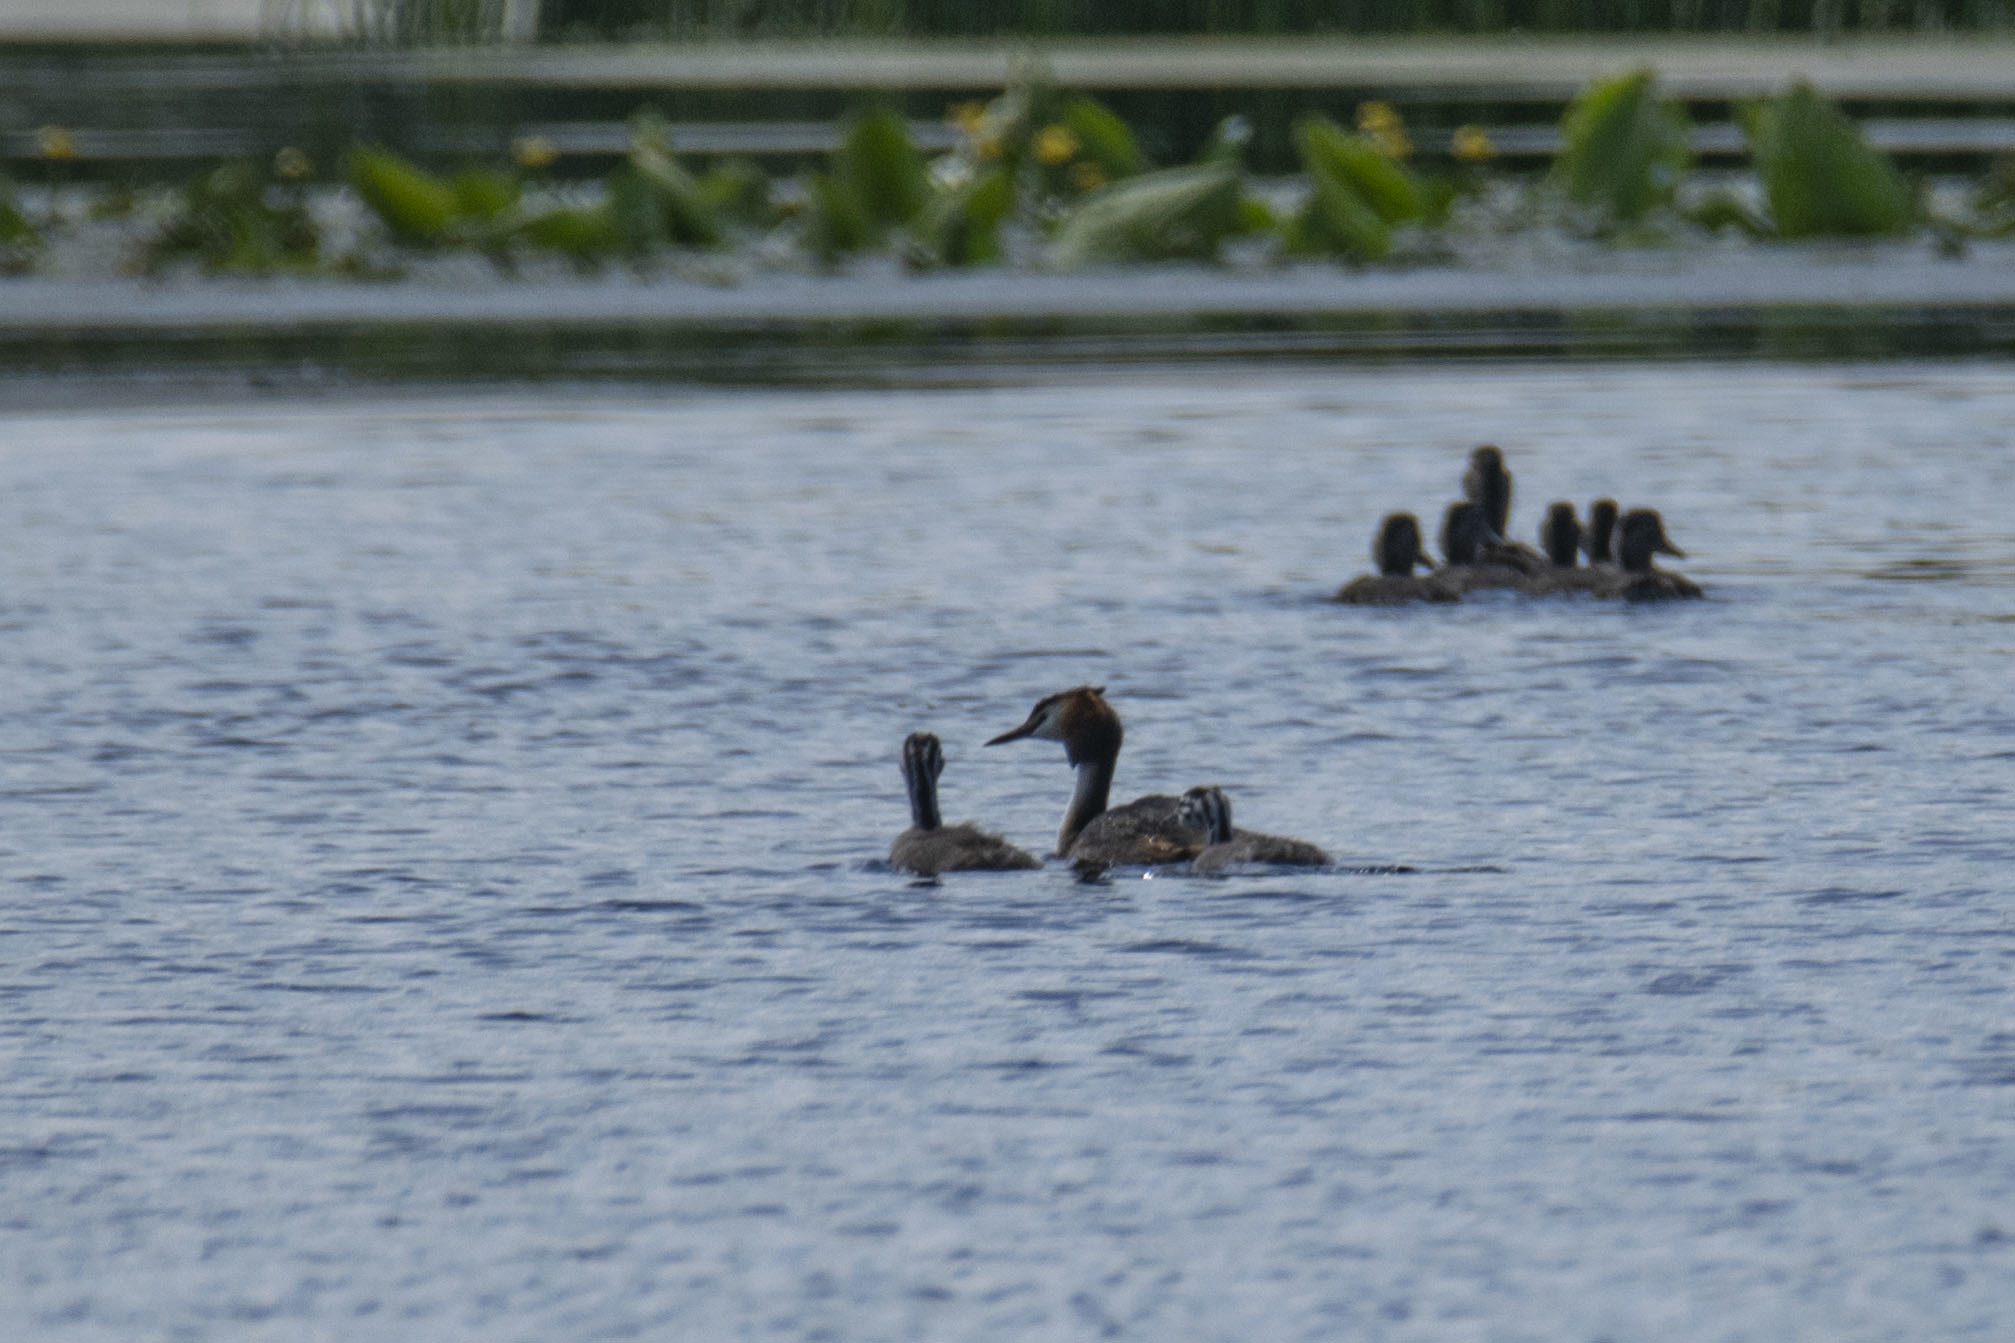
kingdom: Animalia
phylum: Chordata
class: Aves
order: Podicipediformes
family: Podicipedidae
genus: Podiceps
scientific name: Podiceps cristatus
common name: Great crested grebe
